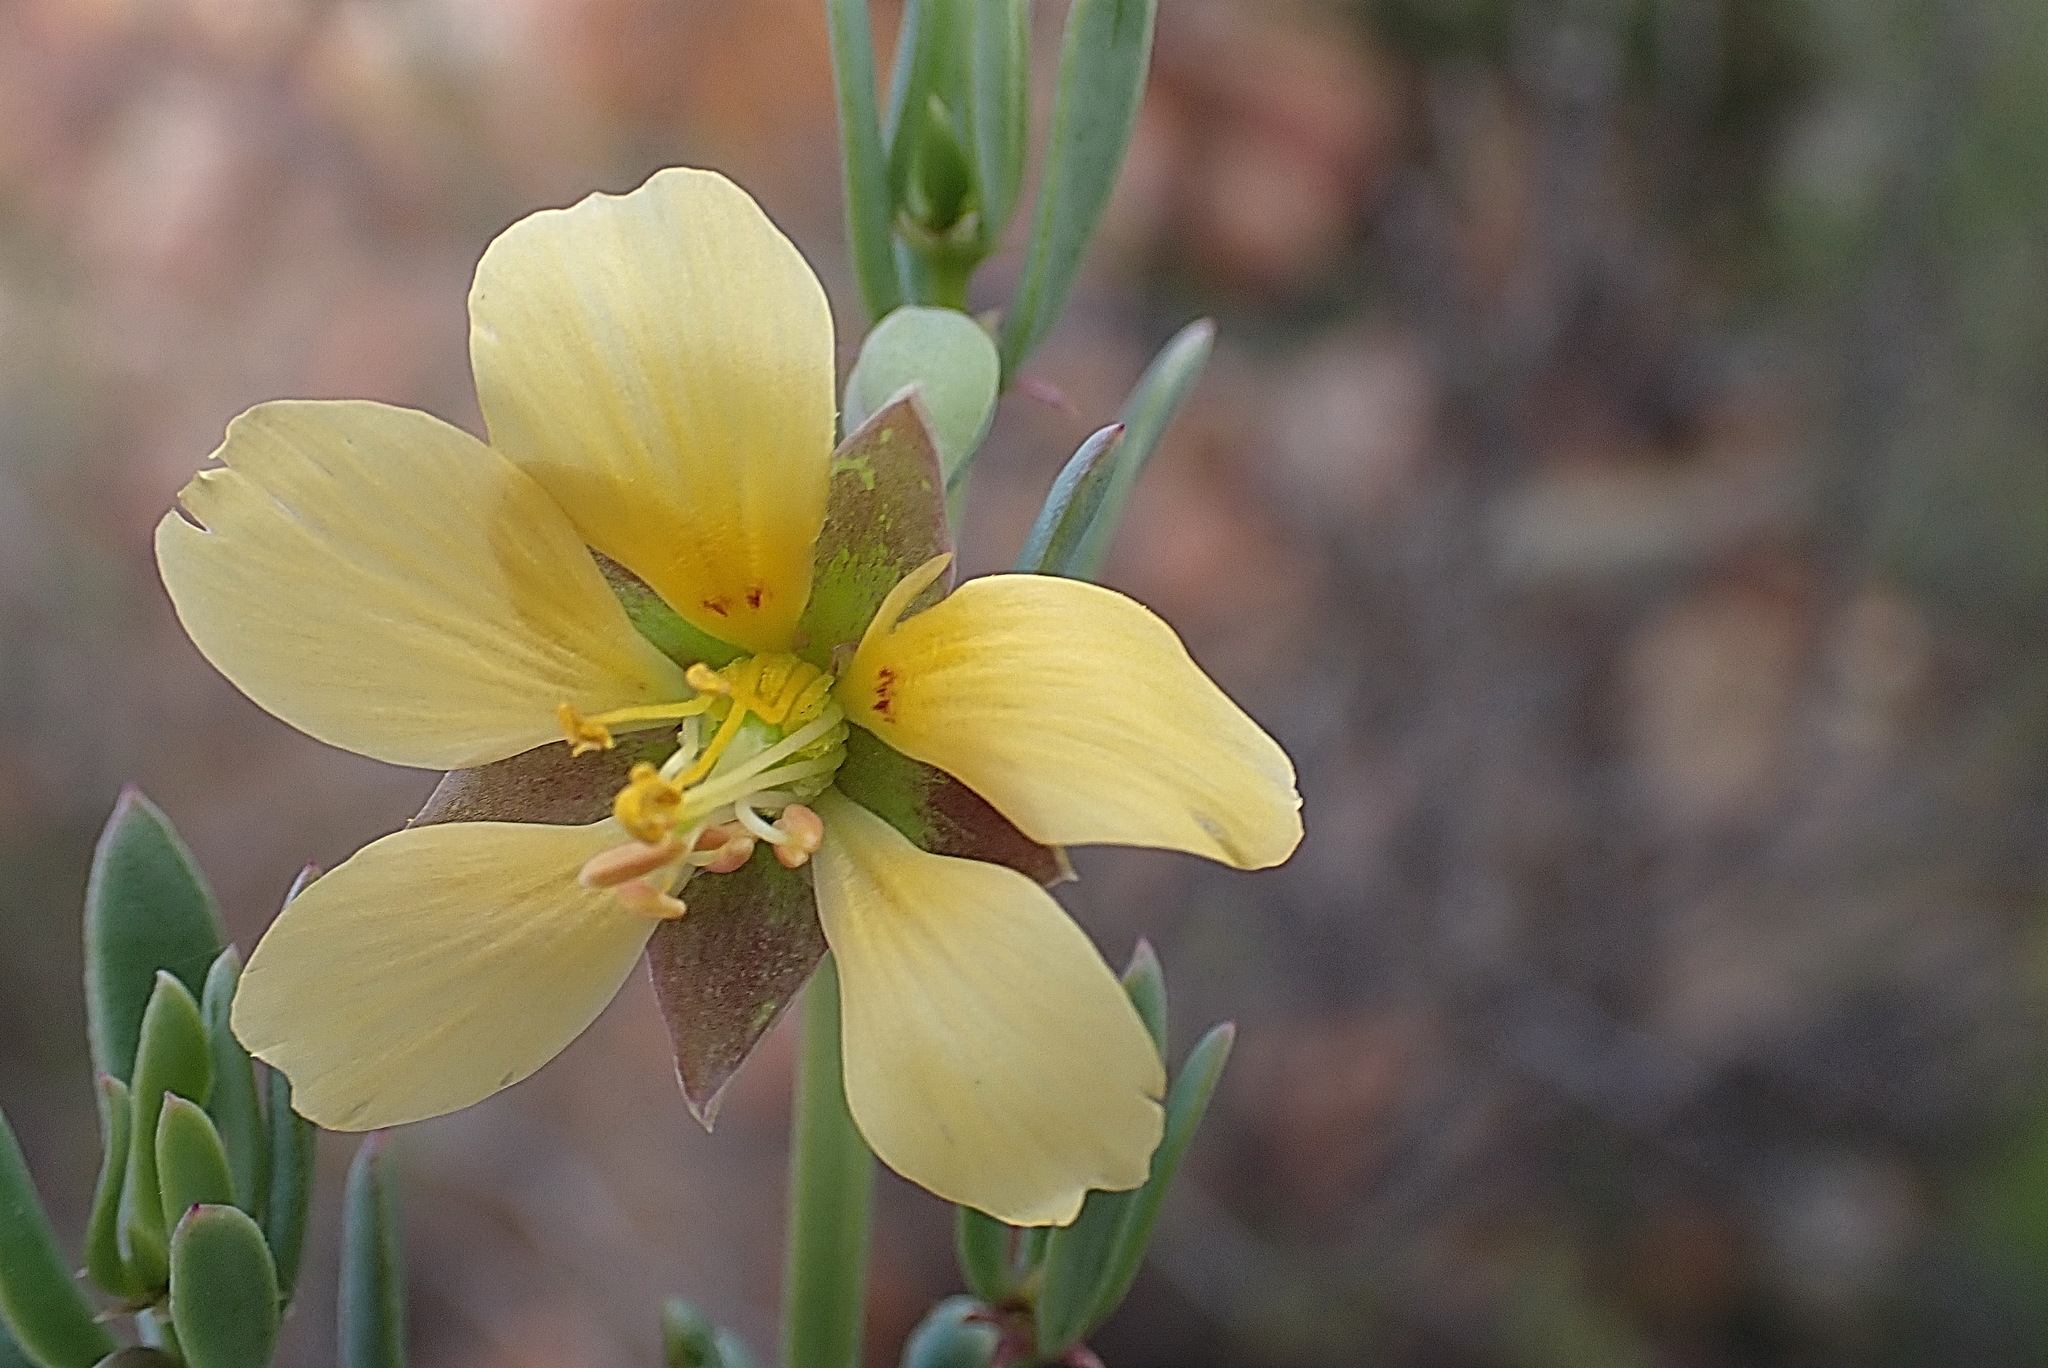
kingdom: Plantae
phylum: Tracheophyta
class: Magnoliopsida
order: Zygophyllales
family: Zygophyllaceae
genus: Roepera
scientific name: Roepera fulva
